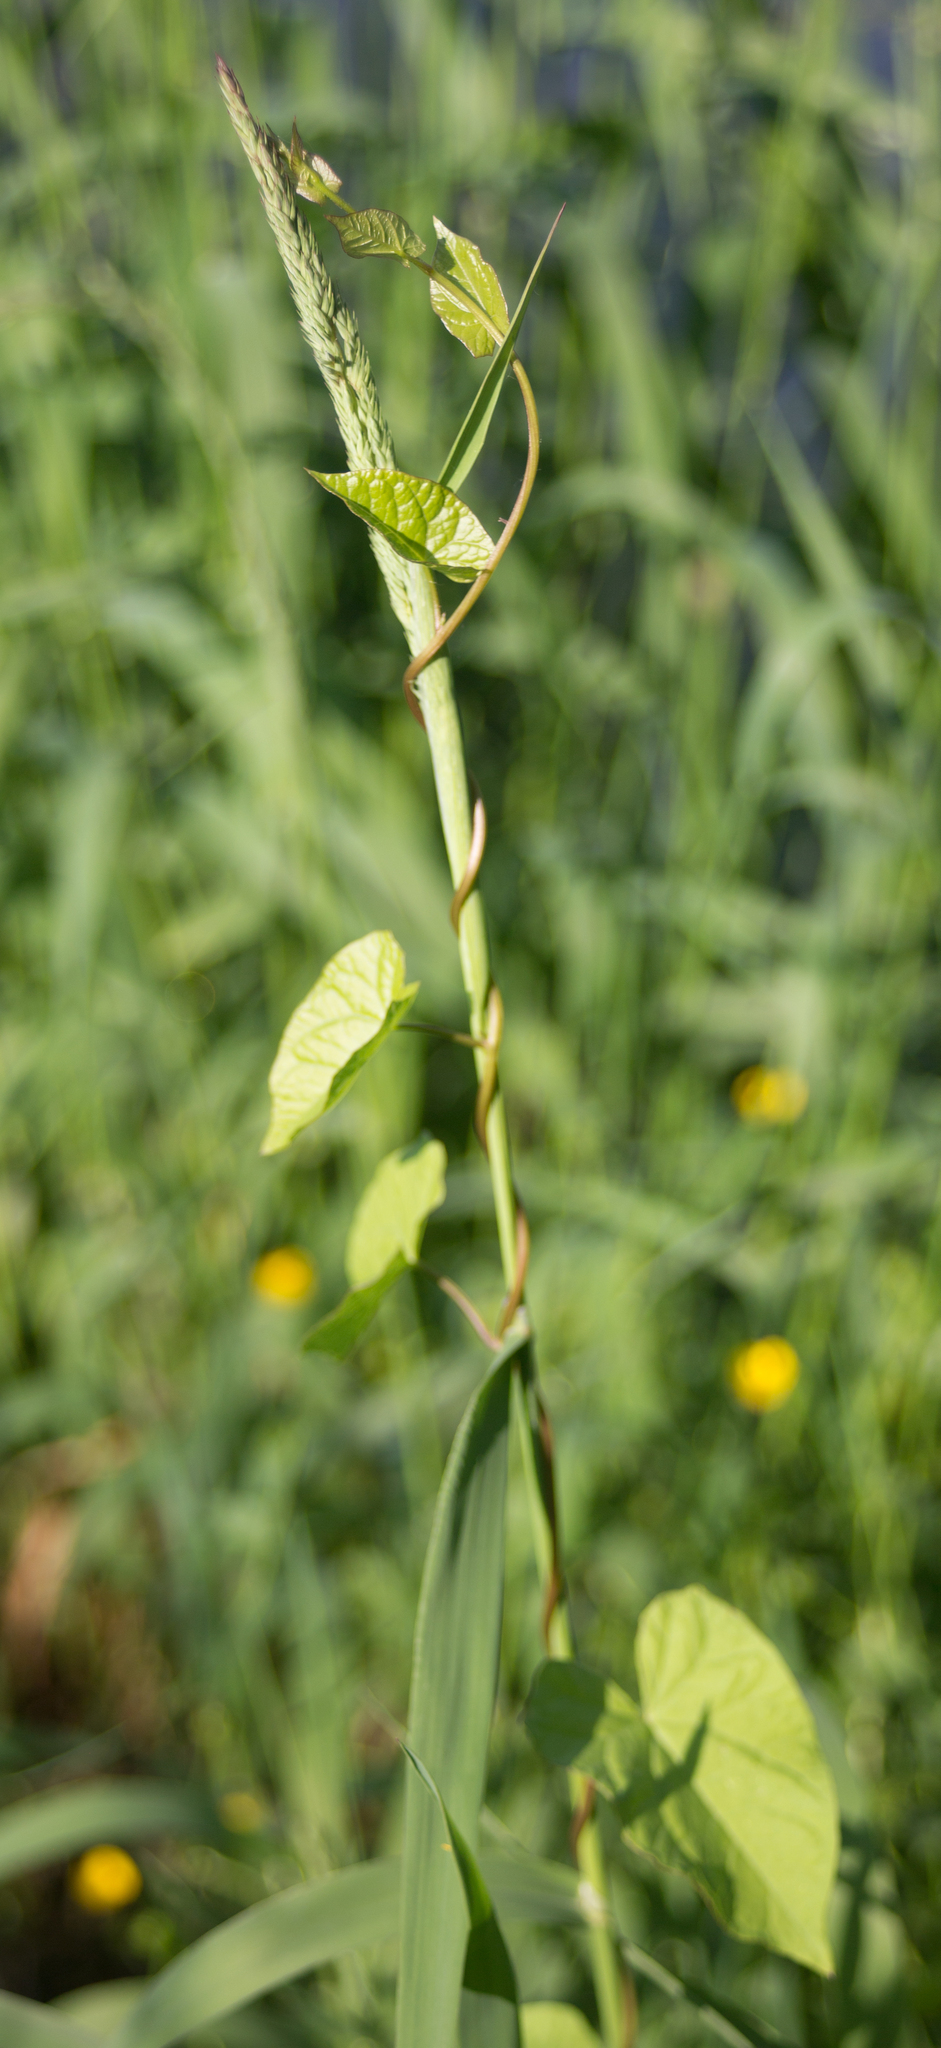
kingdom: Plantae
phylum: Tracheophyta
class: Magnoliopsida
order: Solanales
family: Convolvulaceae
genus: Calystegia
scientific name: Calystegia sepium
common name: Hedge bindweed
